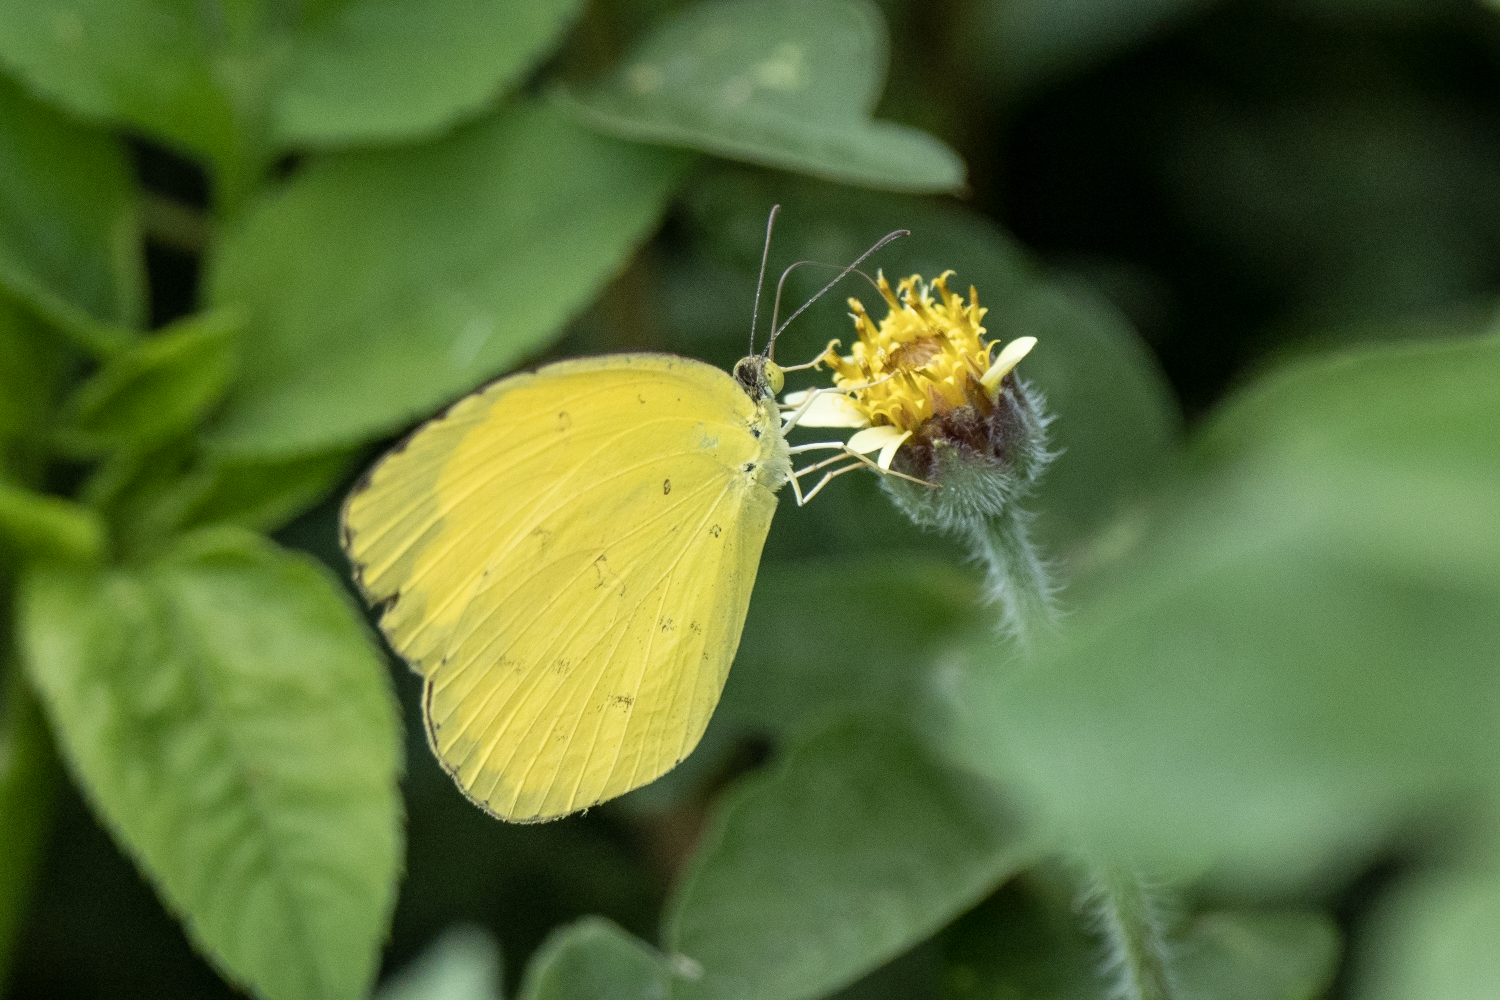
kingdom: Animalia
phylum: Arthropoda
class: Insecta
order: Lepidoptera
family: Pieridae
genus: Eurema
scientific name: Eurema hecabe
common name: Pale grass yellow
